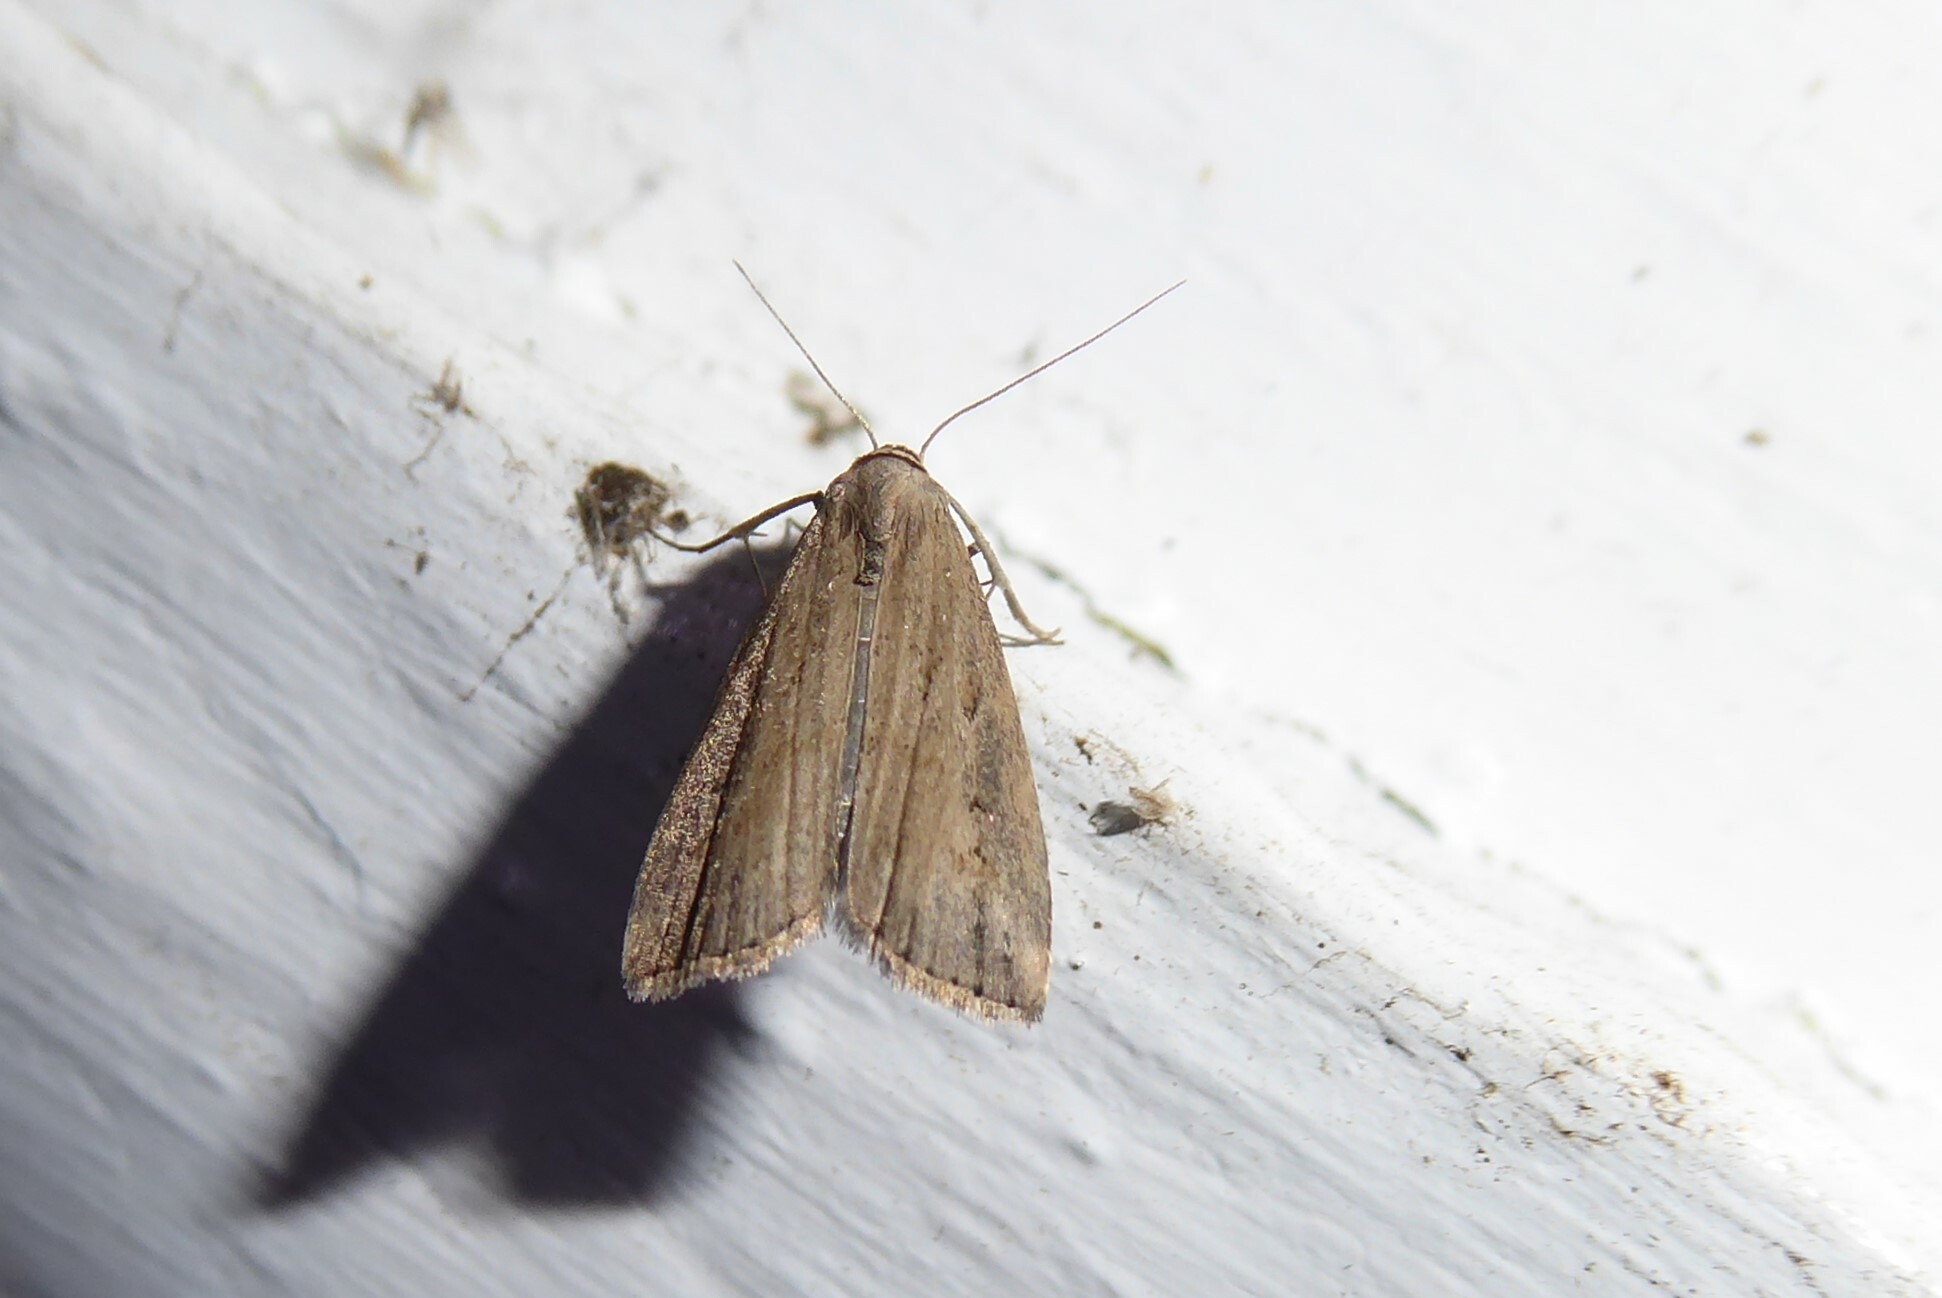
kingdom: Animalia
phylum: Arthropoda
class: Insecta
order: Lepidoptera
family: Erebidae
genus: Schrankia
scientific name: Schrankia costaestrigalis
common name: Pinion-streaked snout
